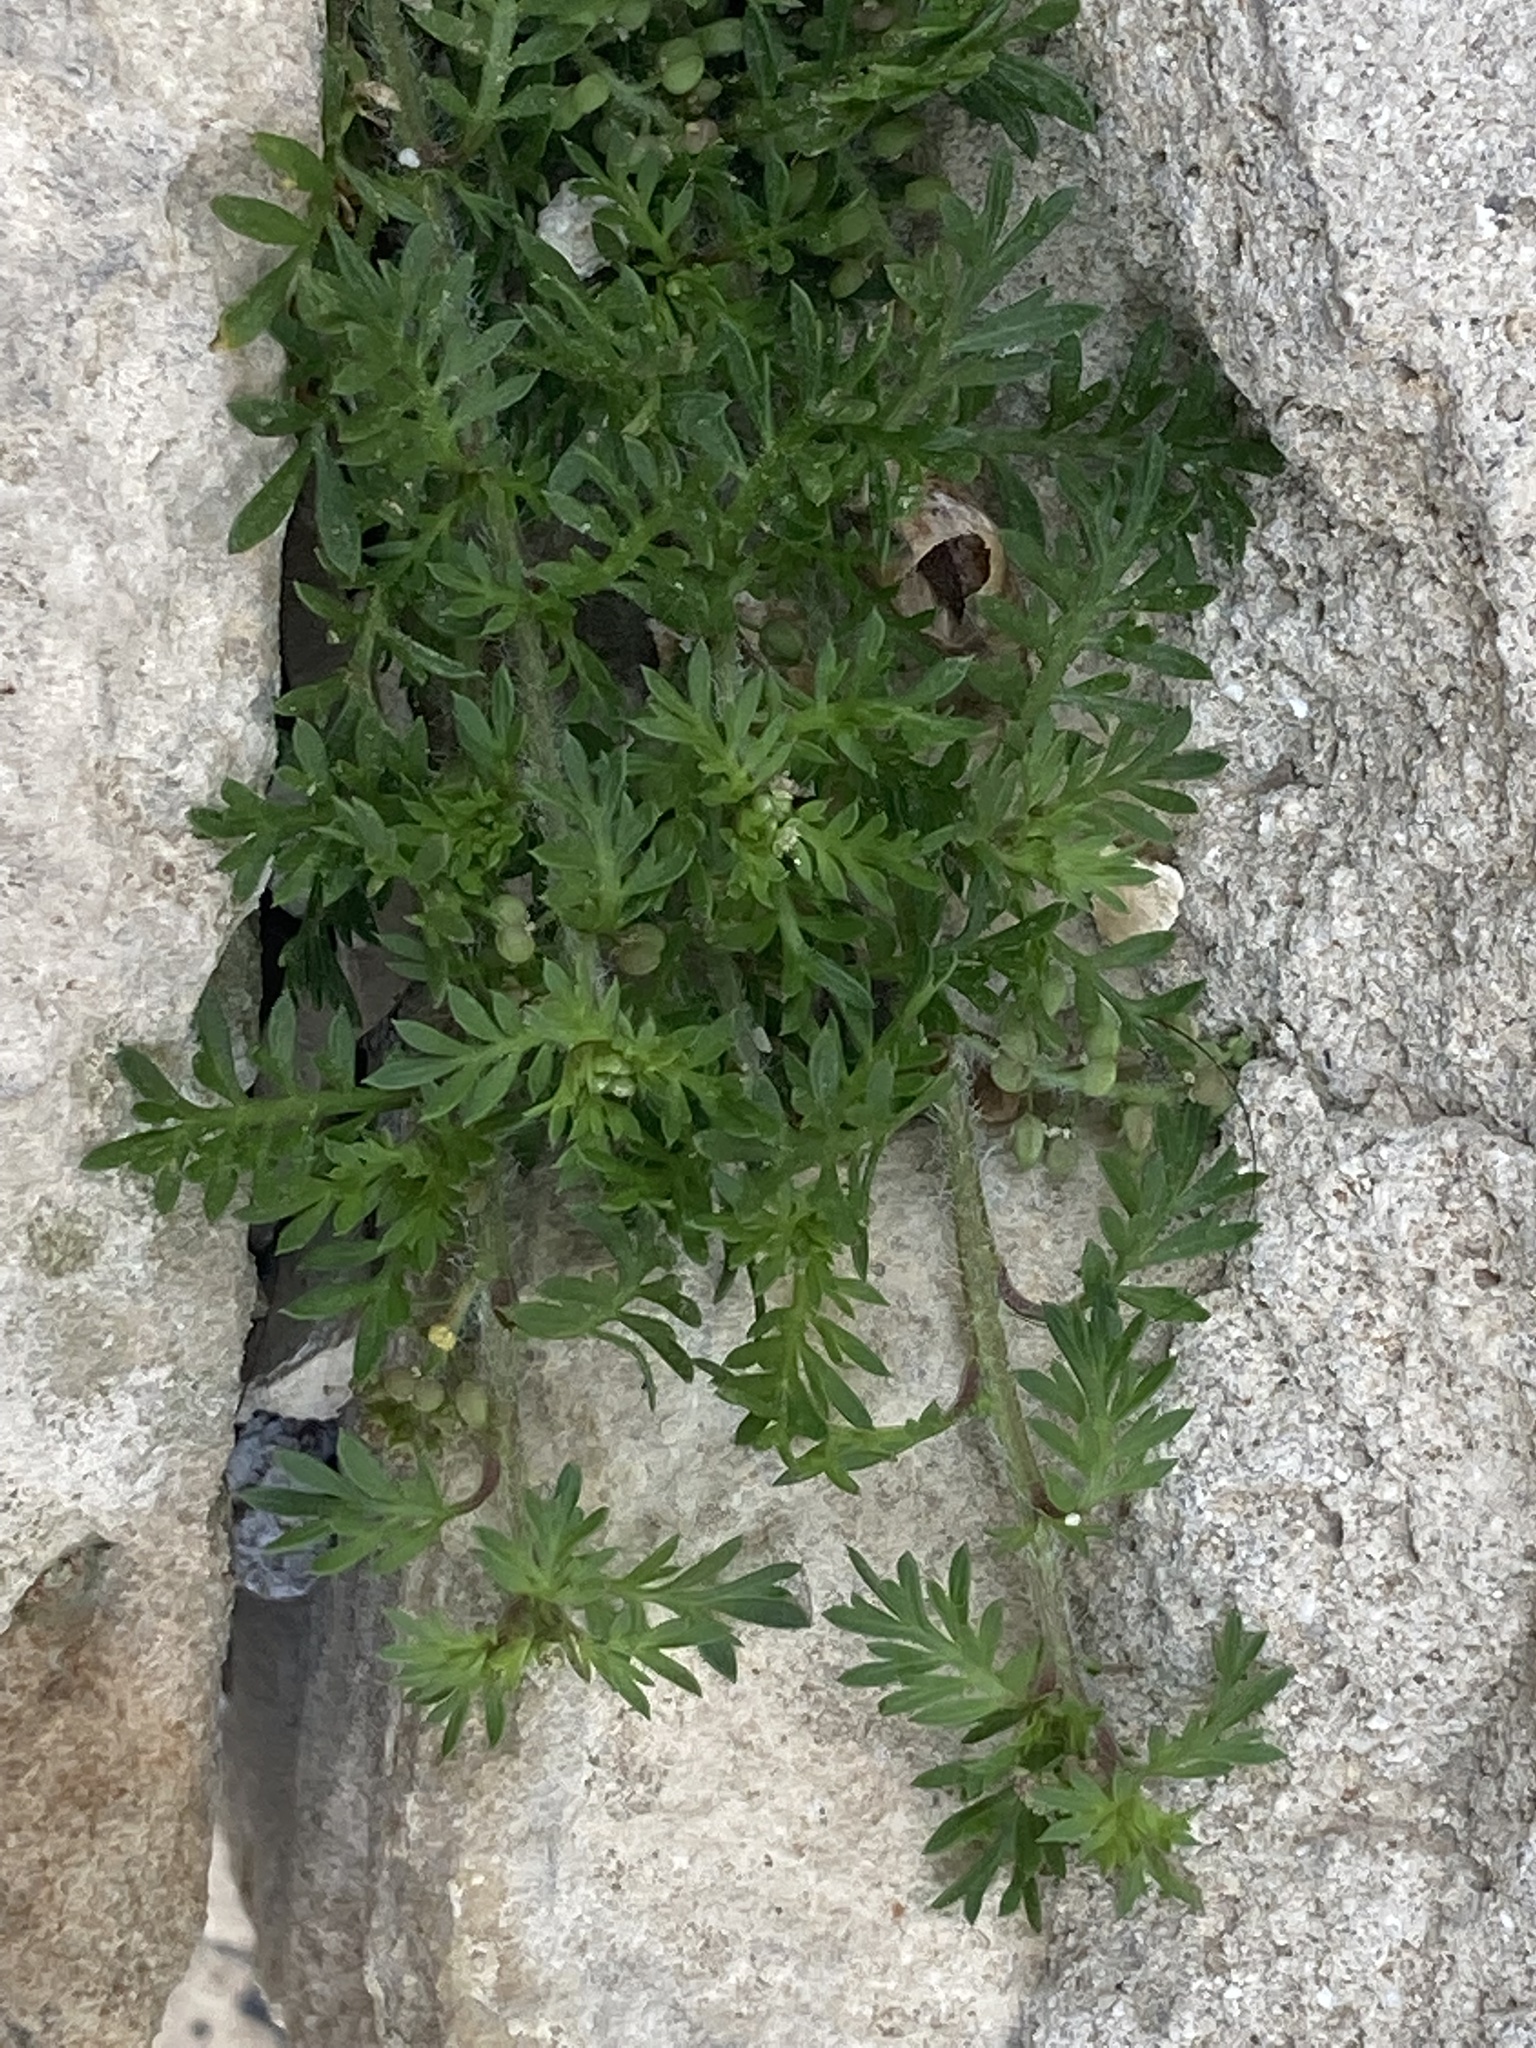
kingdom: Plantae
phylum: Tracheophyta
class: Magnoliopsida
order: Brassicales
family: Brassicaceae
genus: Lepidium
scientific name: Lepidium didymum
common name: Lesser swinecress
